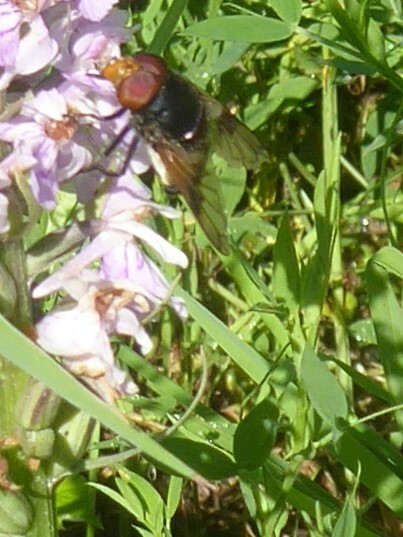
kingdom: Animalia
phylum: Arthropoda
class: Insecta
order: Diptera
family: Syrphidae
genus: Volucella
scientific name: Volucella pellucens
